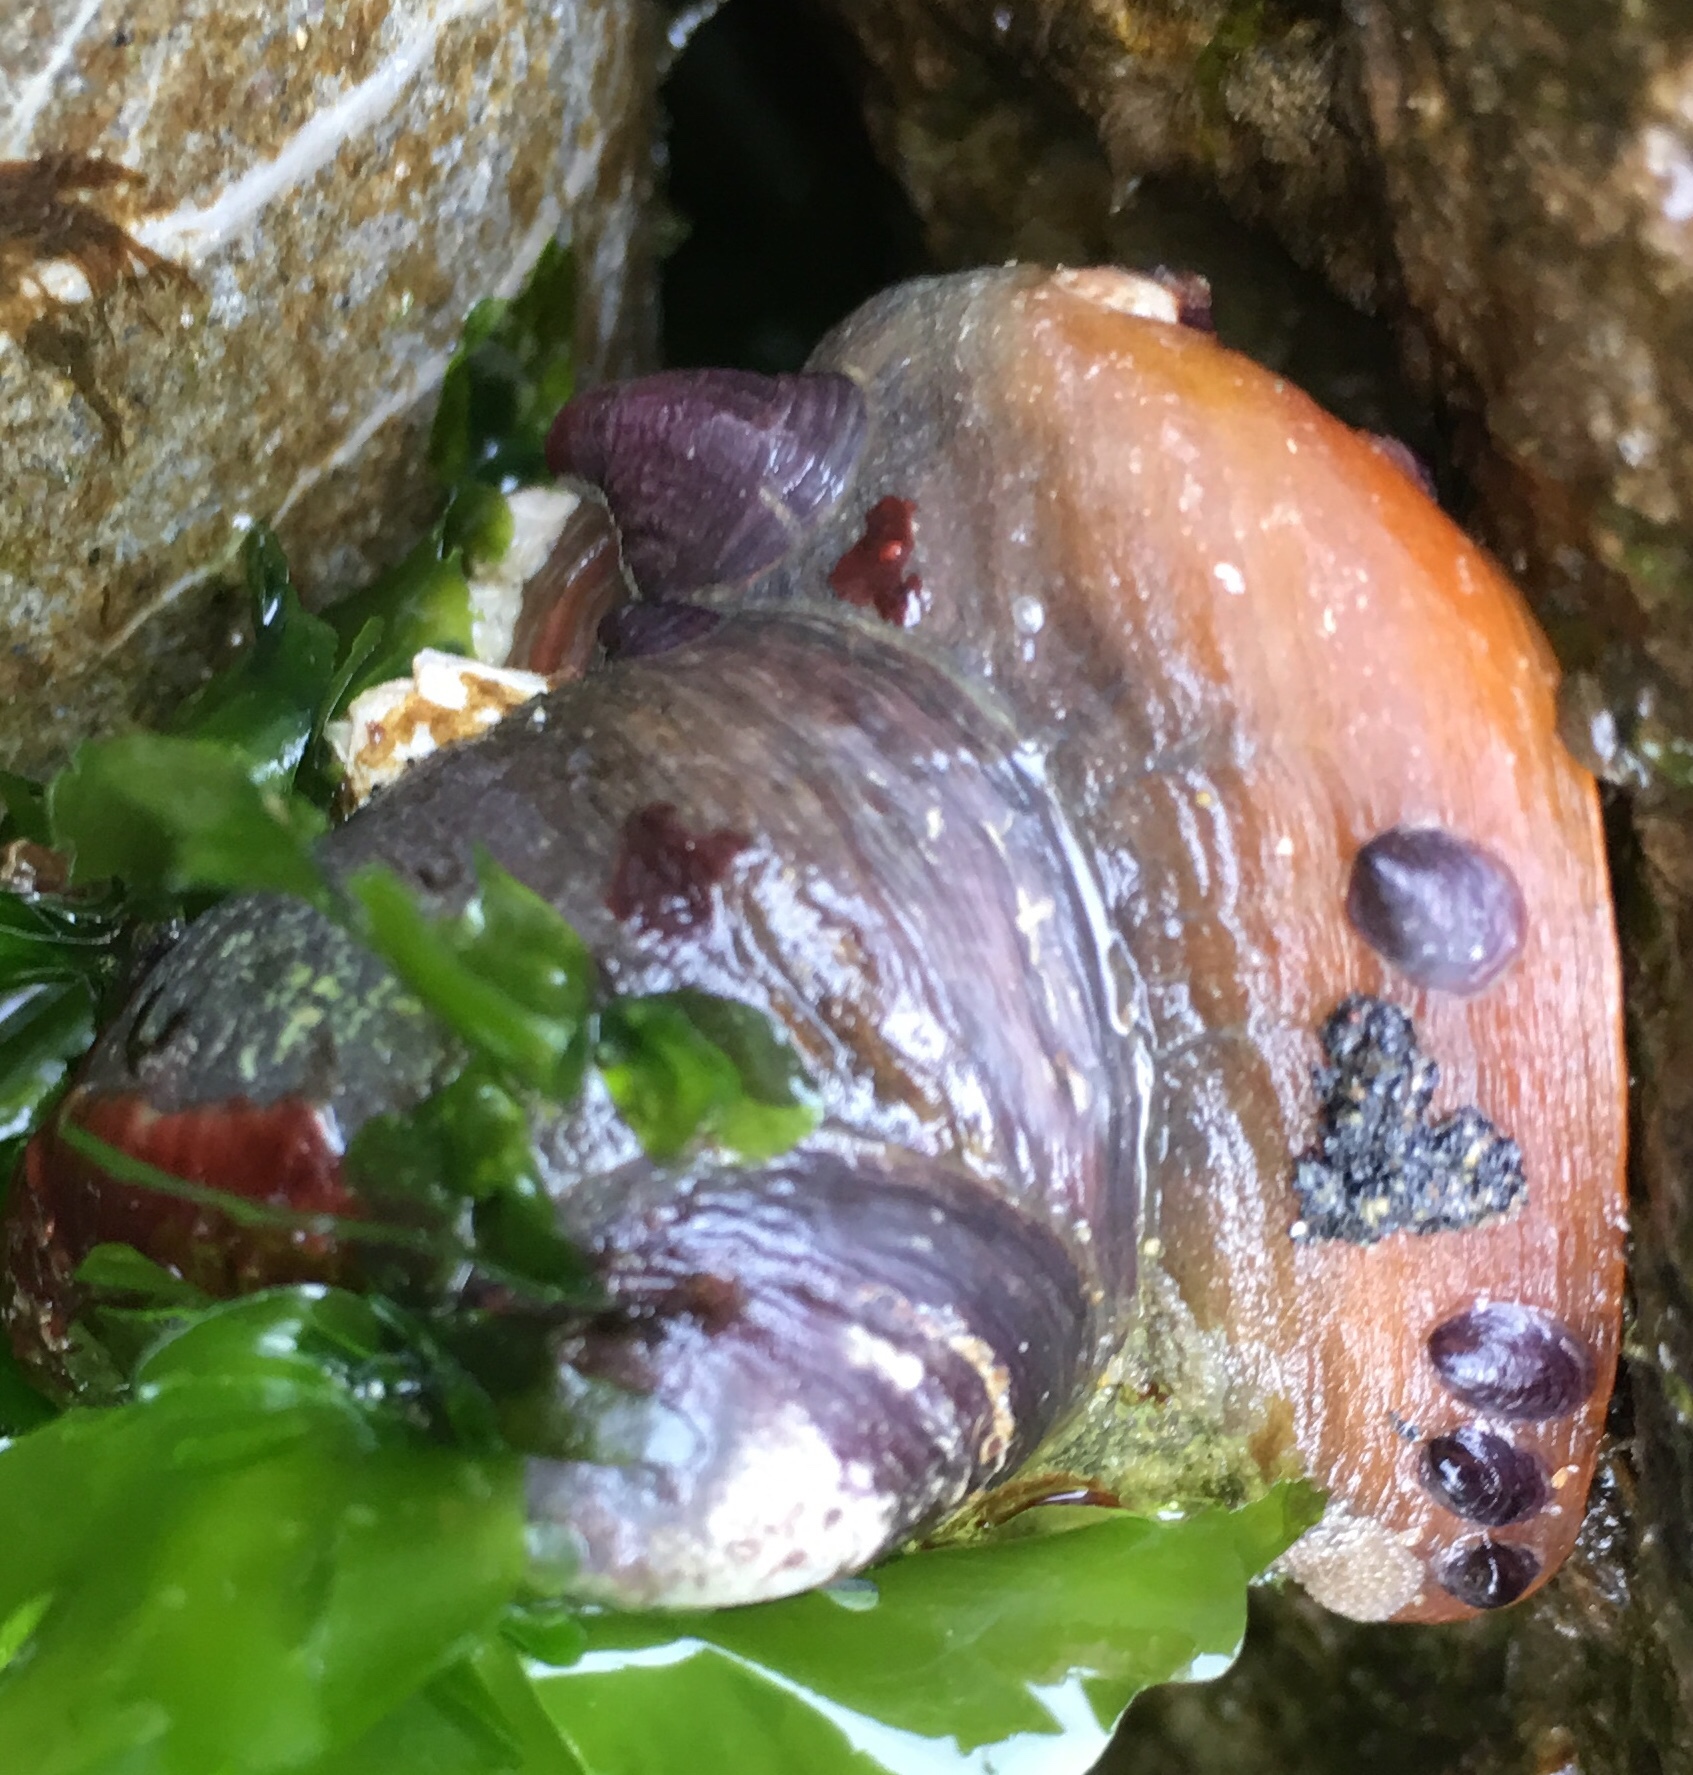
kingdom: Animalia
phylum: Mollusca
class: Gastropoda
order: Littorinimorpha
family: Calyptraeidae
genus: Crepidula
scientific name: Crepidula adunca
